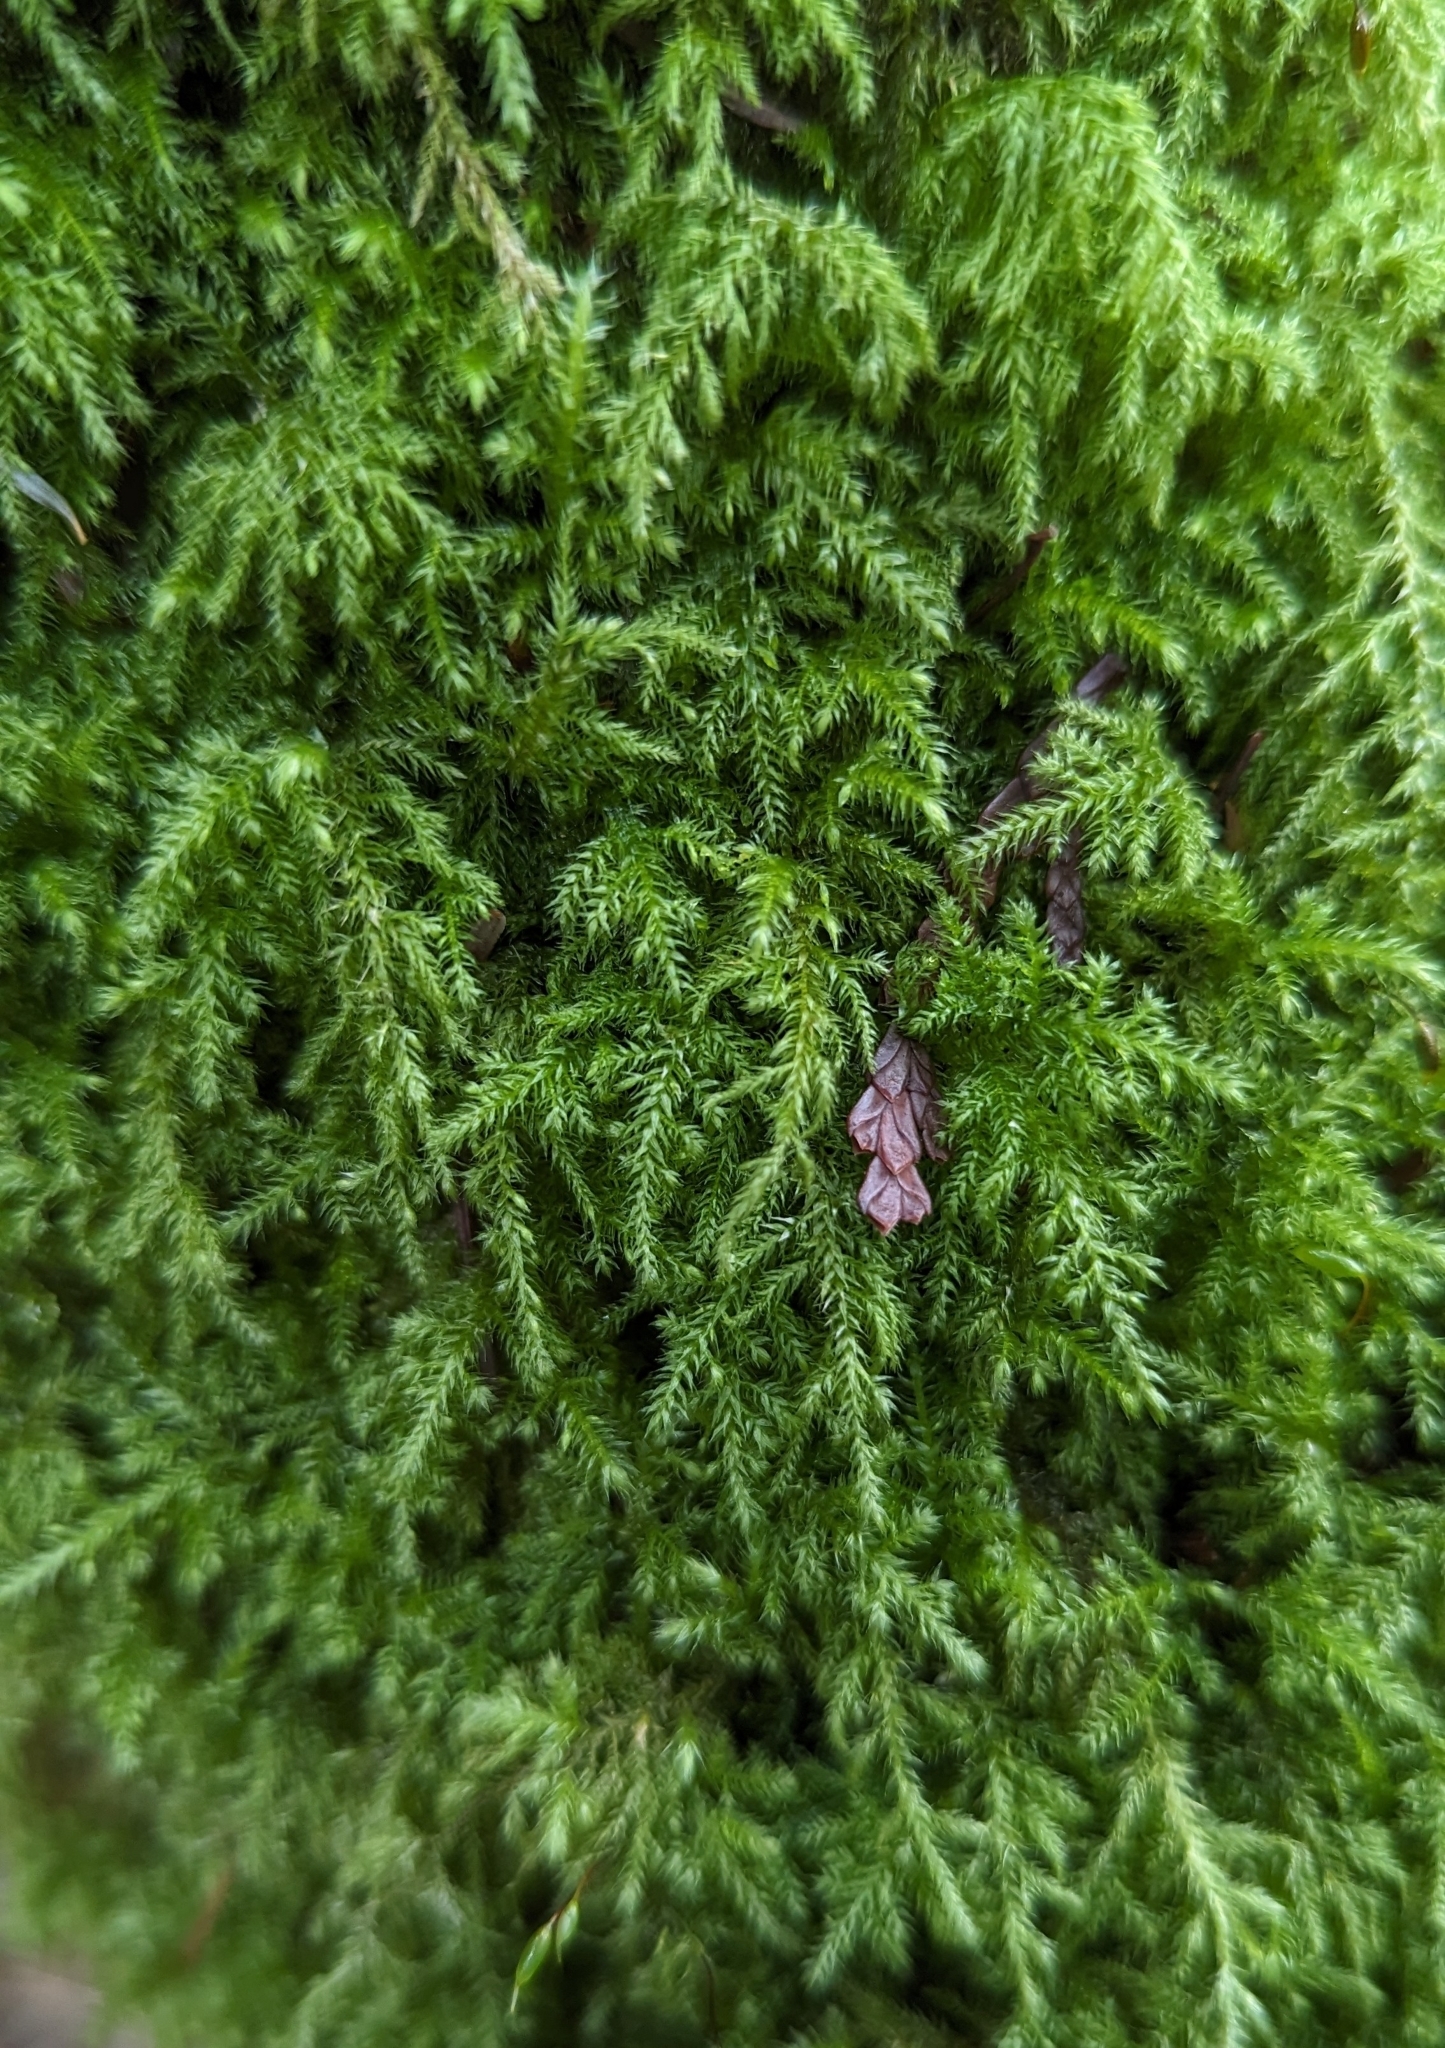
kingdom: Plantae
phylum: Bryophyta
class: Bryopsida
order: Hypnales
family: Lembophyllaceae
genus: Pseudisothecium
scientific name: Pseudisothecium stoloniferum
